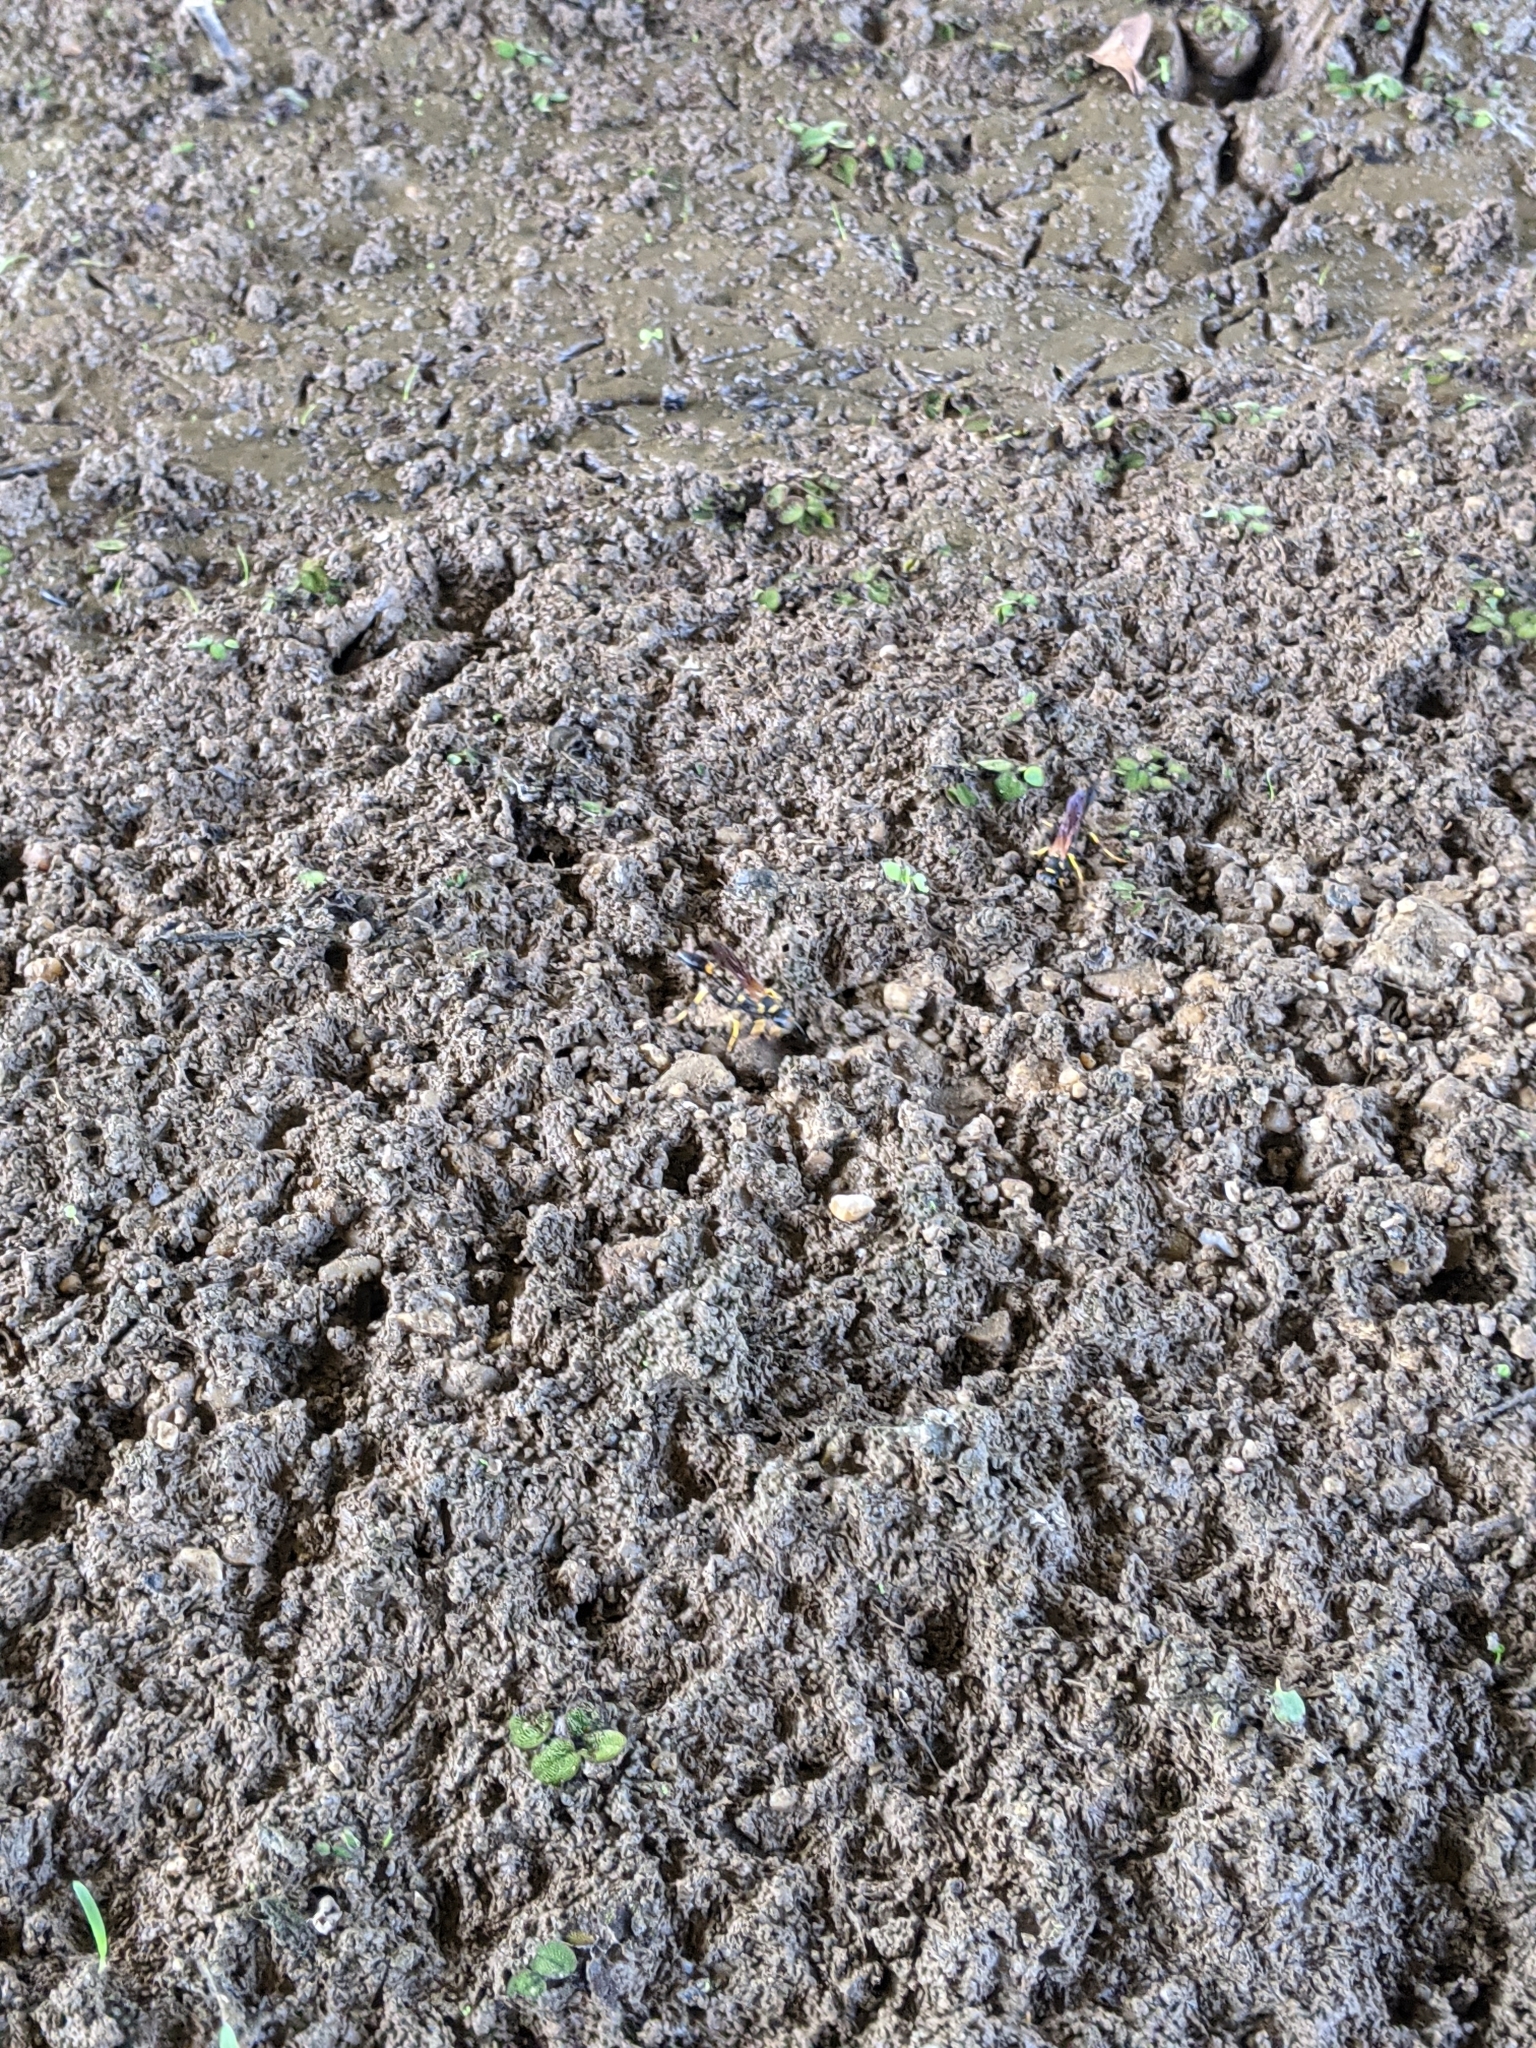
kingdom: Animalia
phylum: Arthropoda
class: Insecta
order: Hymenoptera
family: Sphecidae
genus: Sceliphron
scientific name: Sceliphron caementarium
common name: Mud dauber
